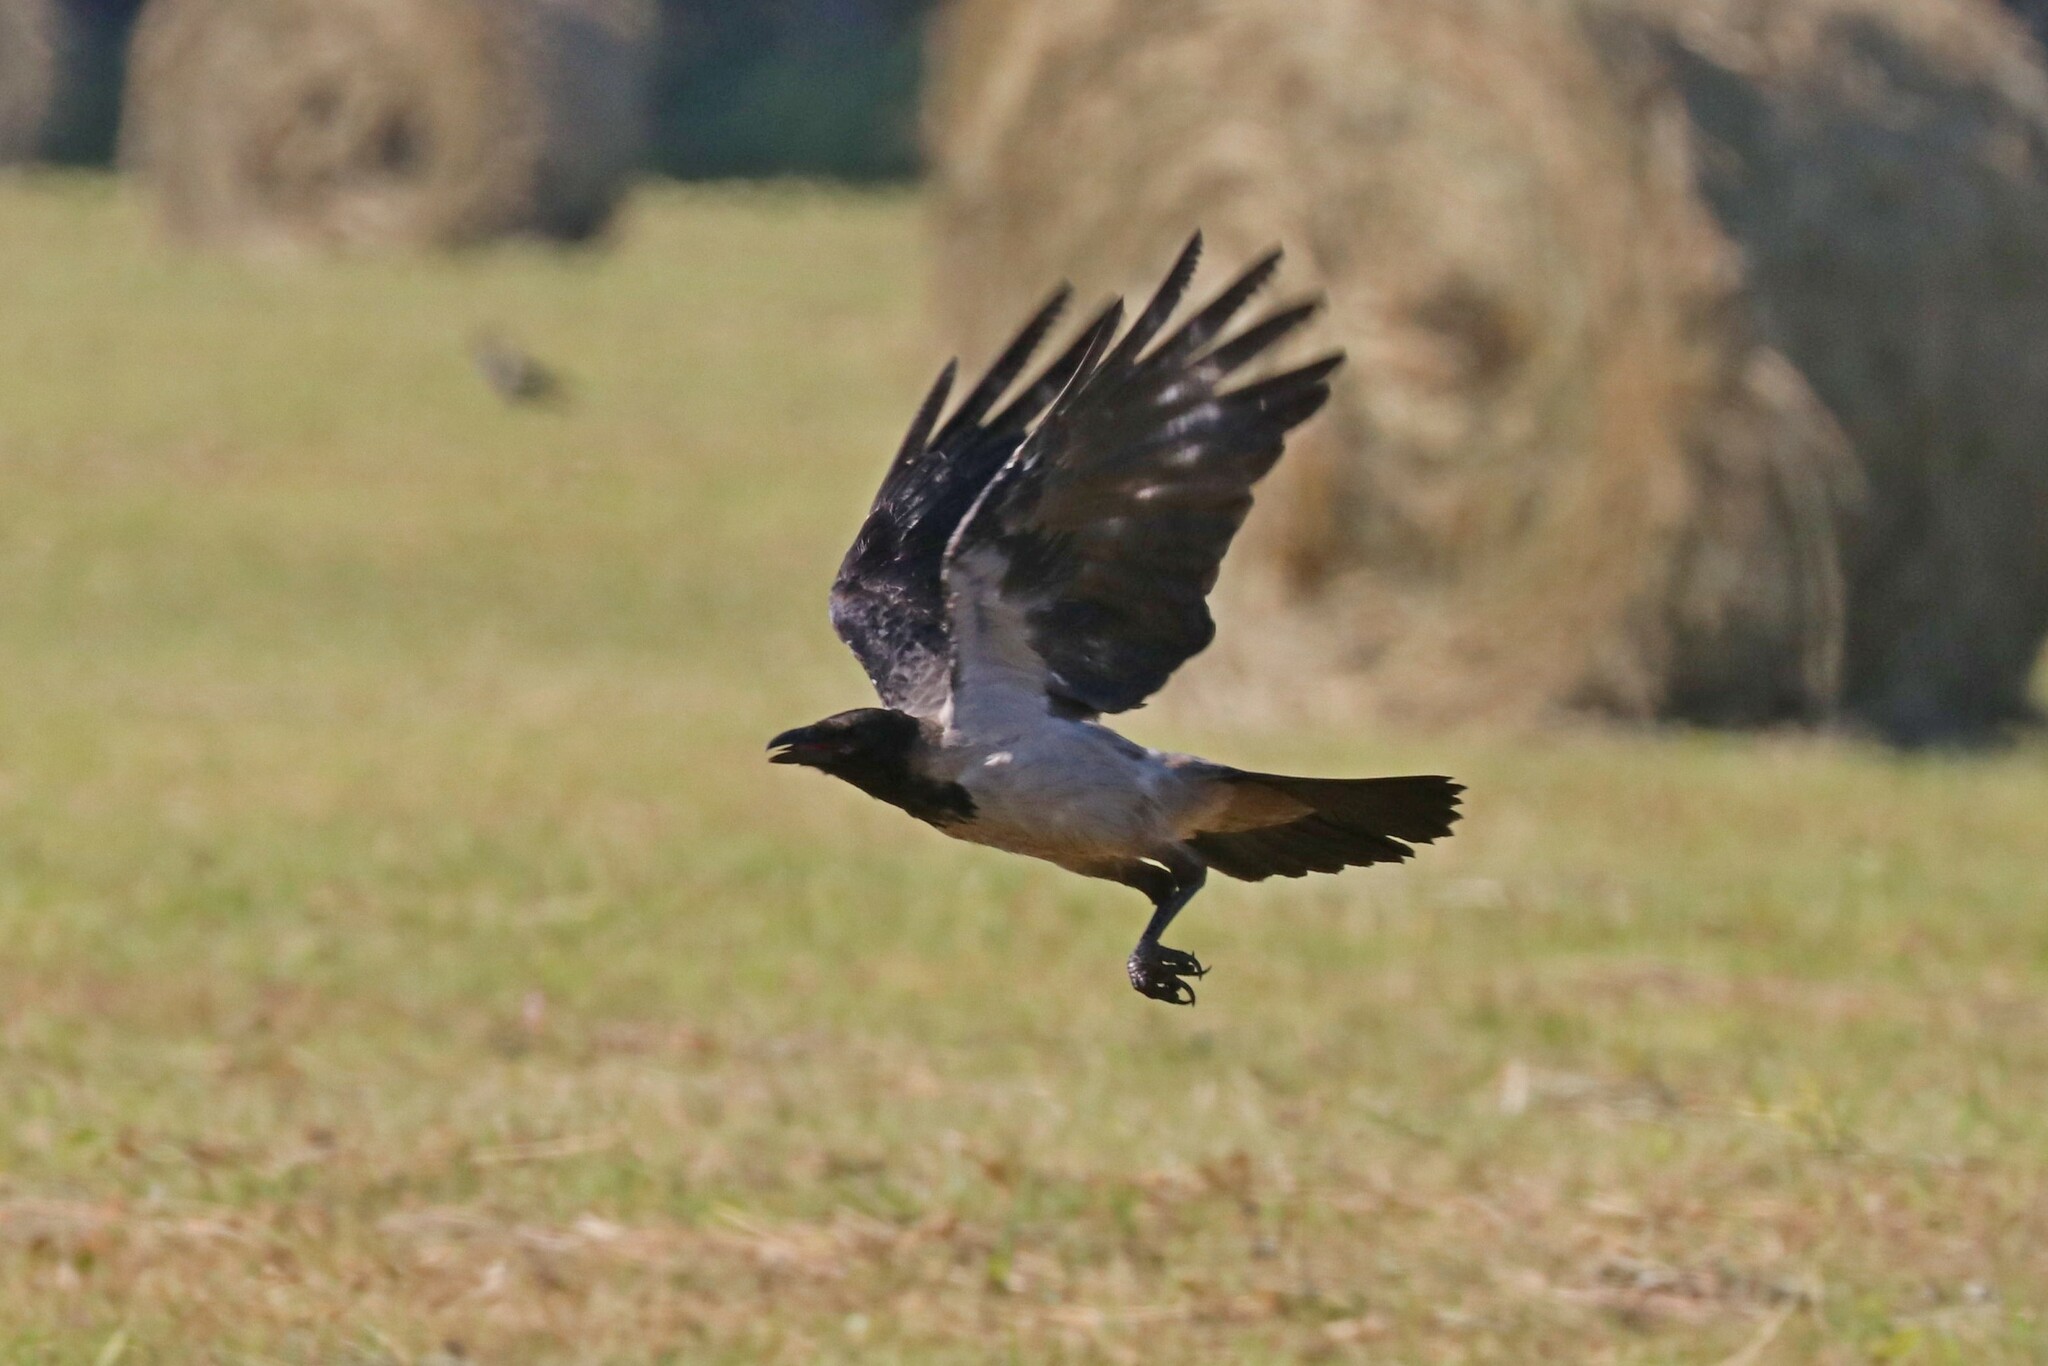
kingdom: Animalia
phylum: Chordata
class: Aves
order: Passeriformes
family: Corvidae
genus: Corvus
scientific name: Corvus cornix
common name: Hooded crow
